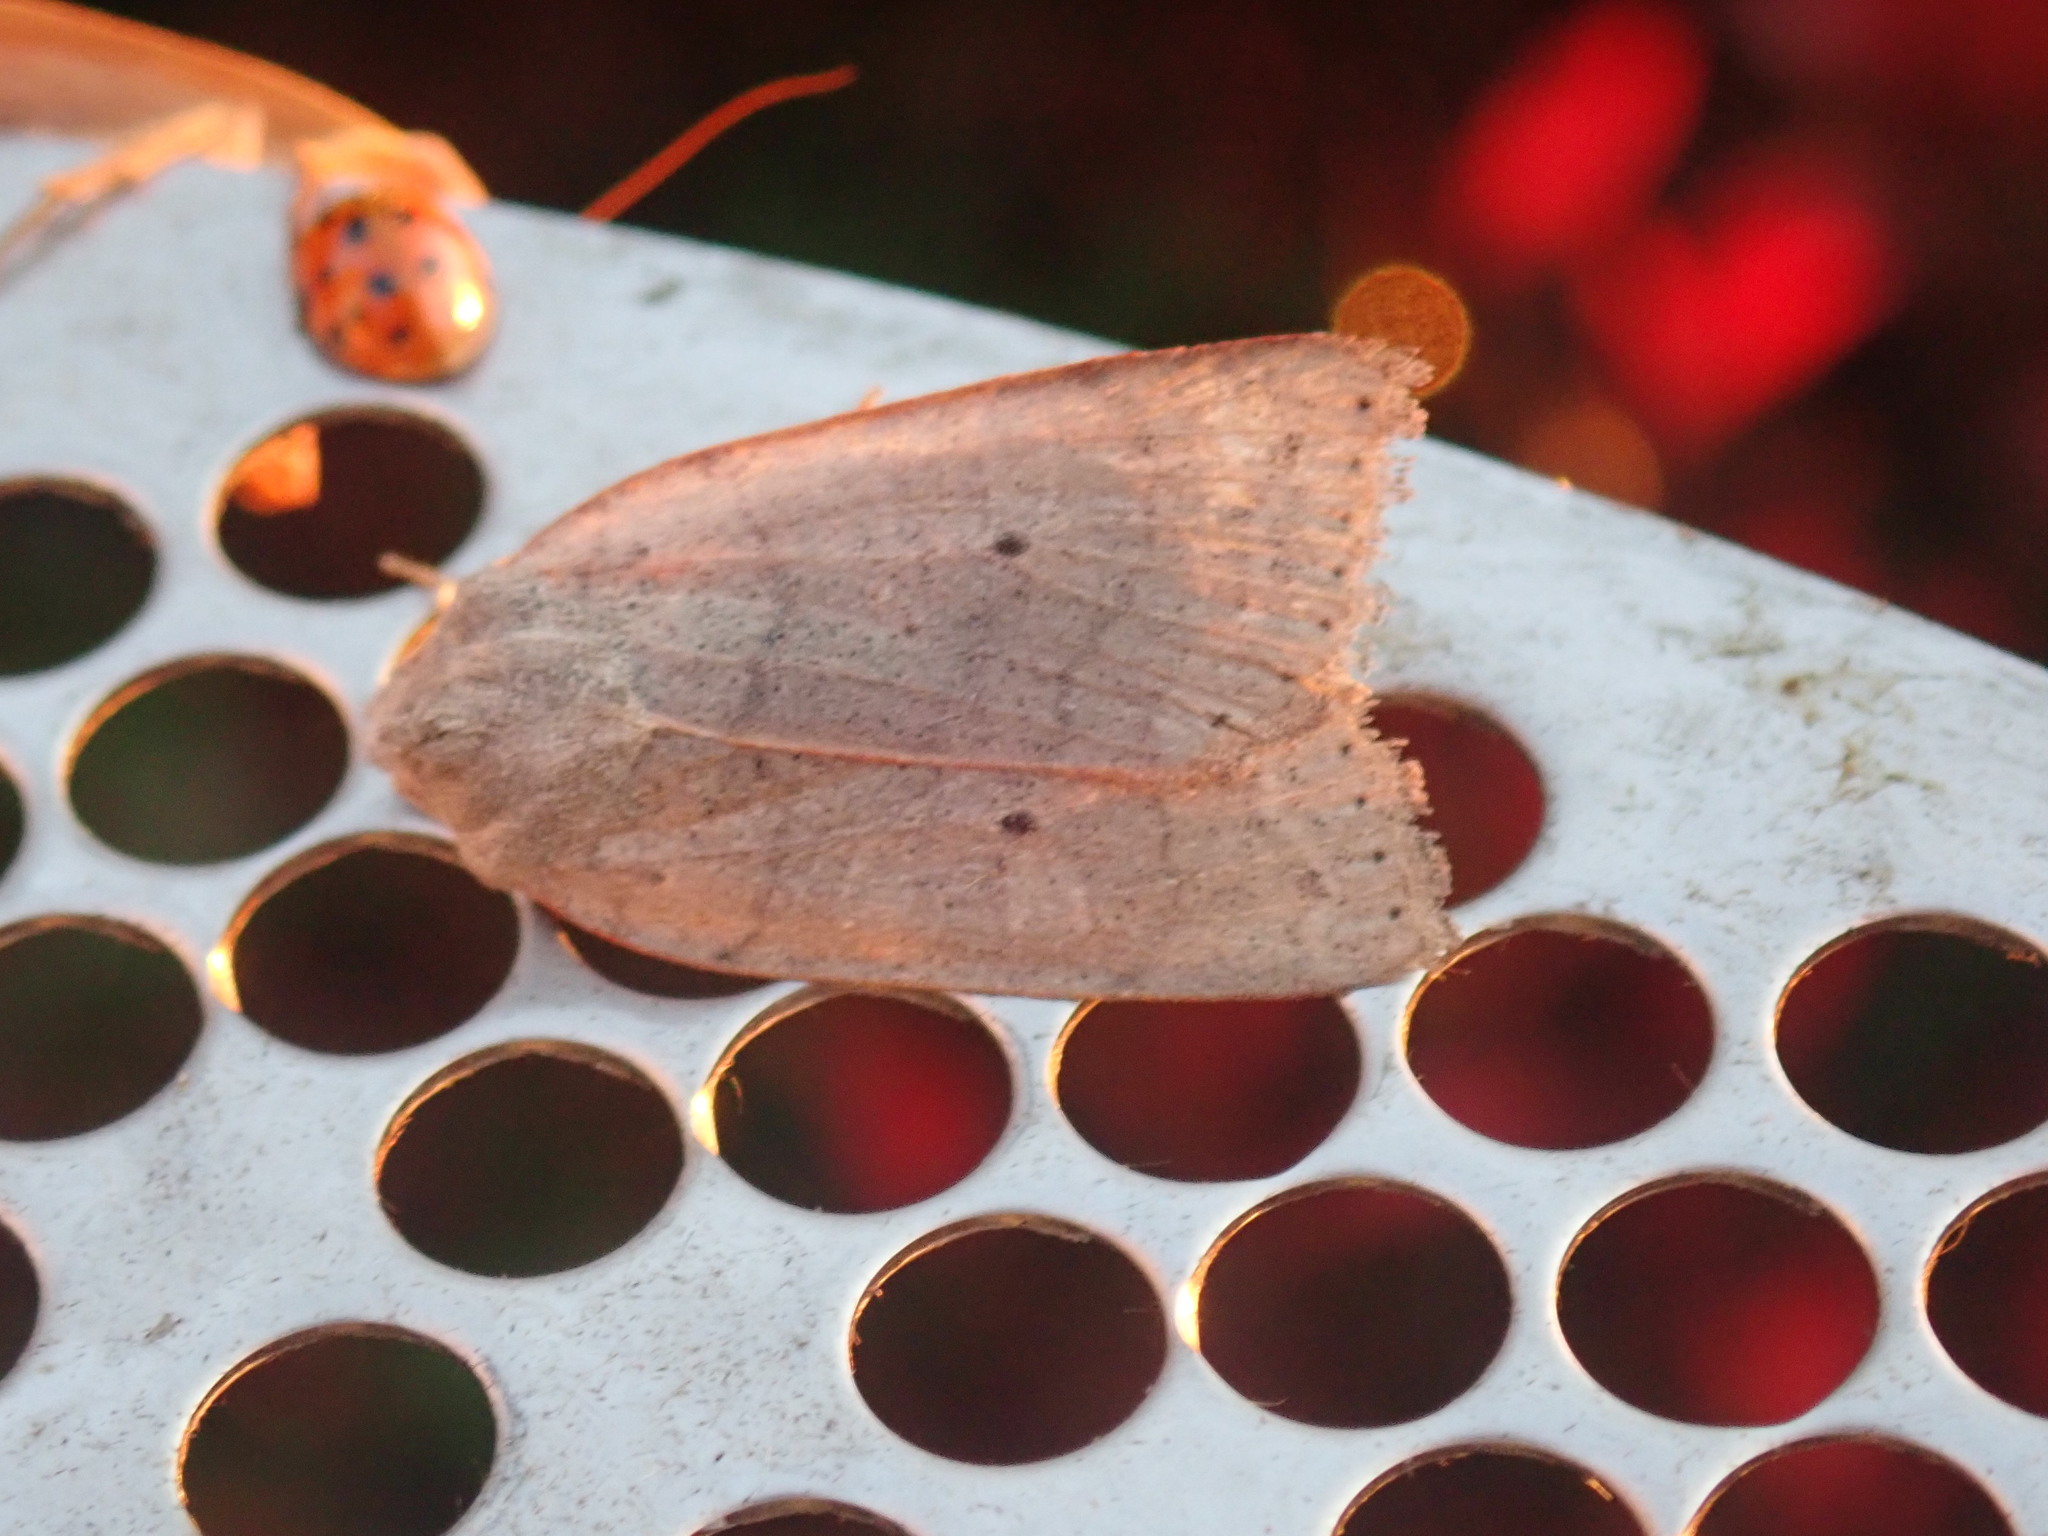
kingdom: Animalia
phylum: Arthropoda
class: Insecta
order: Lepidoptera
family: Noctuidae
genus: Chaetaglaea
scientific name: Chaetaglaea rhonda
